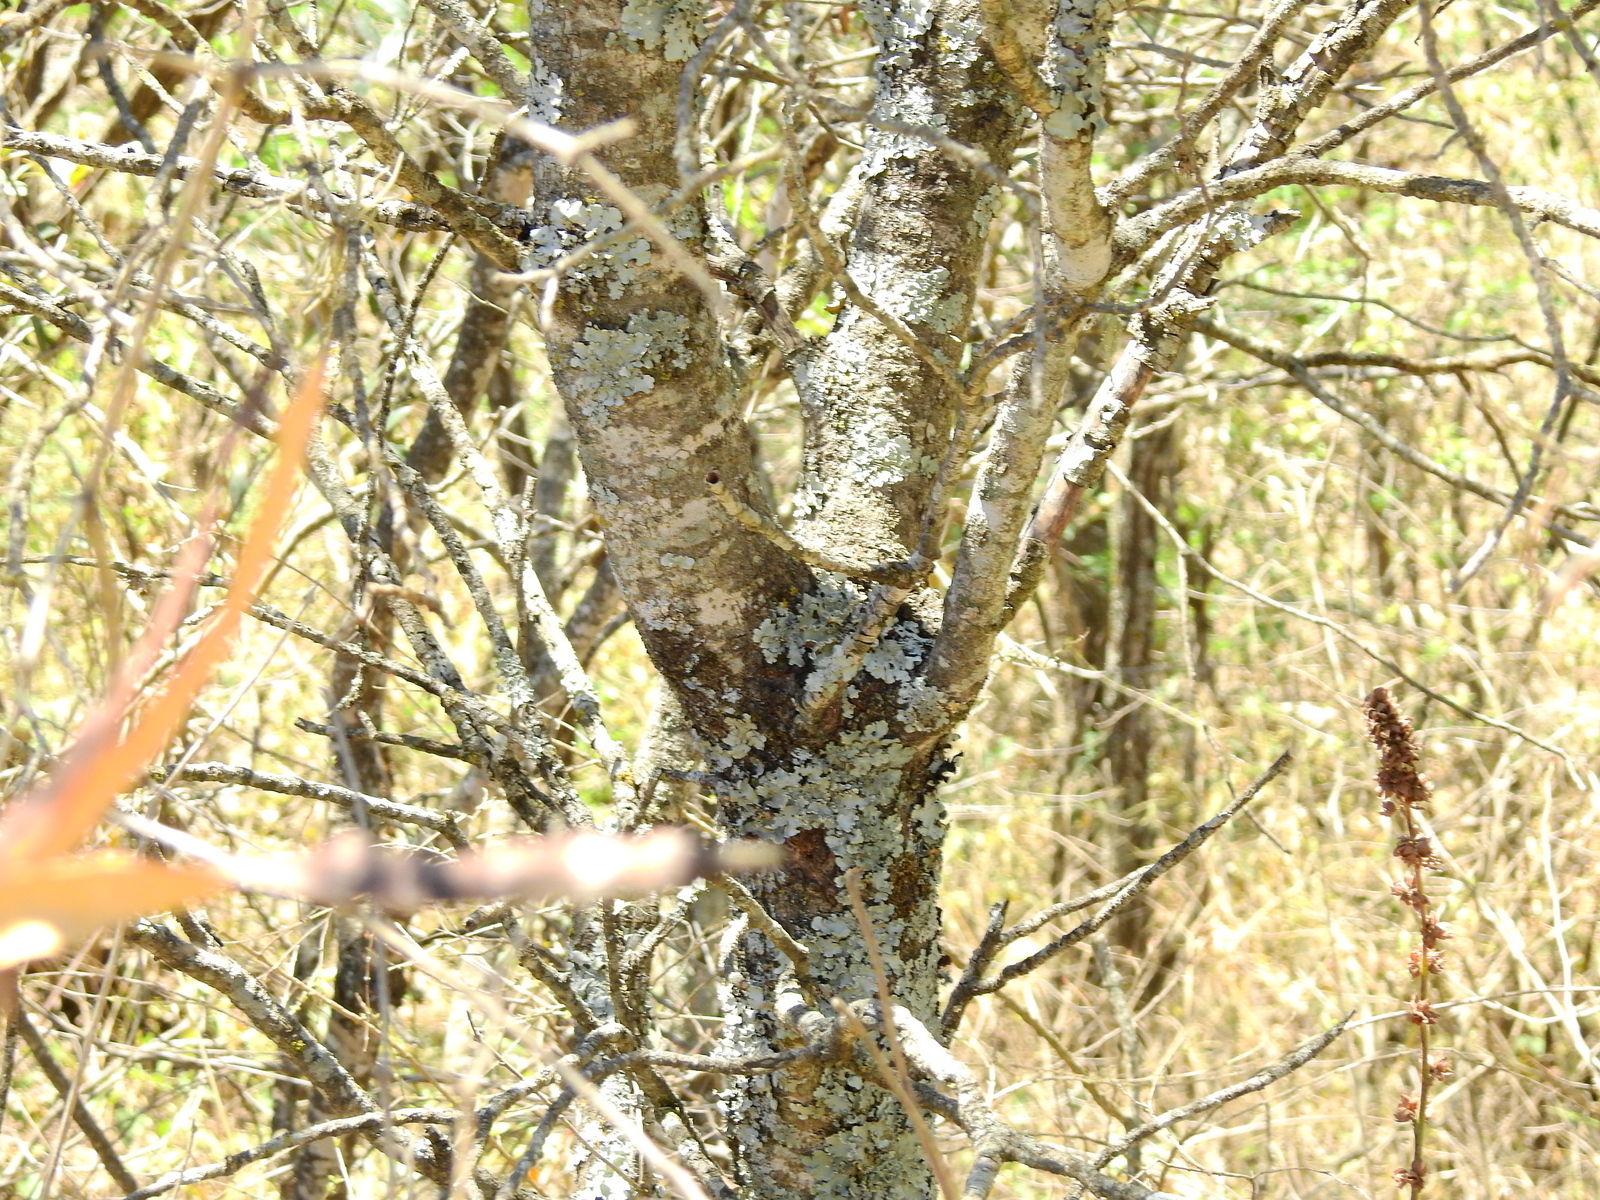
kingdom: Plantae
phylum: Tracheophyta
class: Magnoliopsida
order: Sapindales
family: Anacardiaceae
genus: Lithraea
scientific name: Lithraea molleoides
